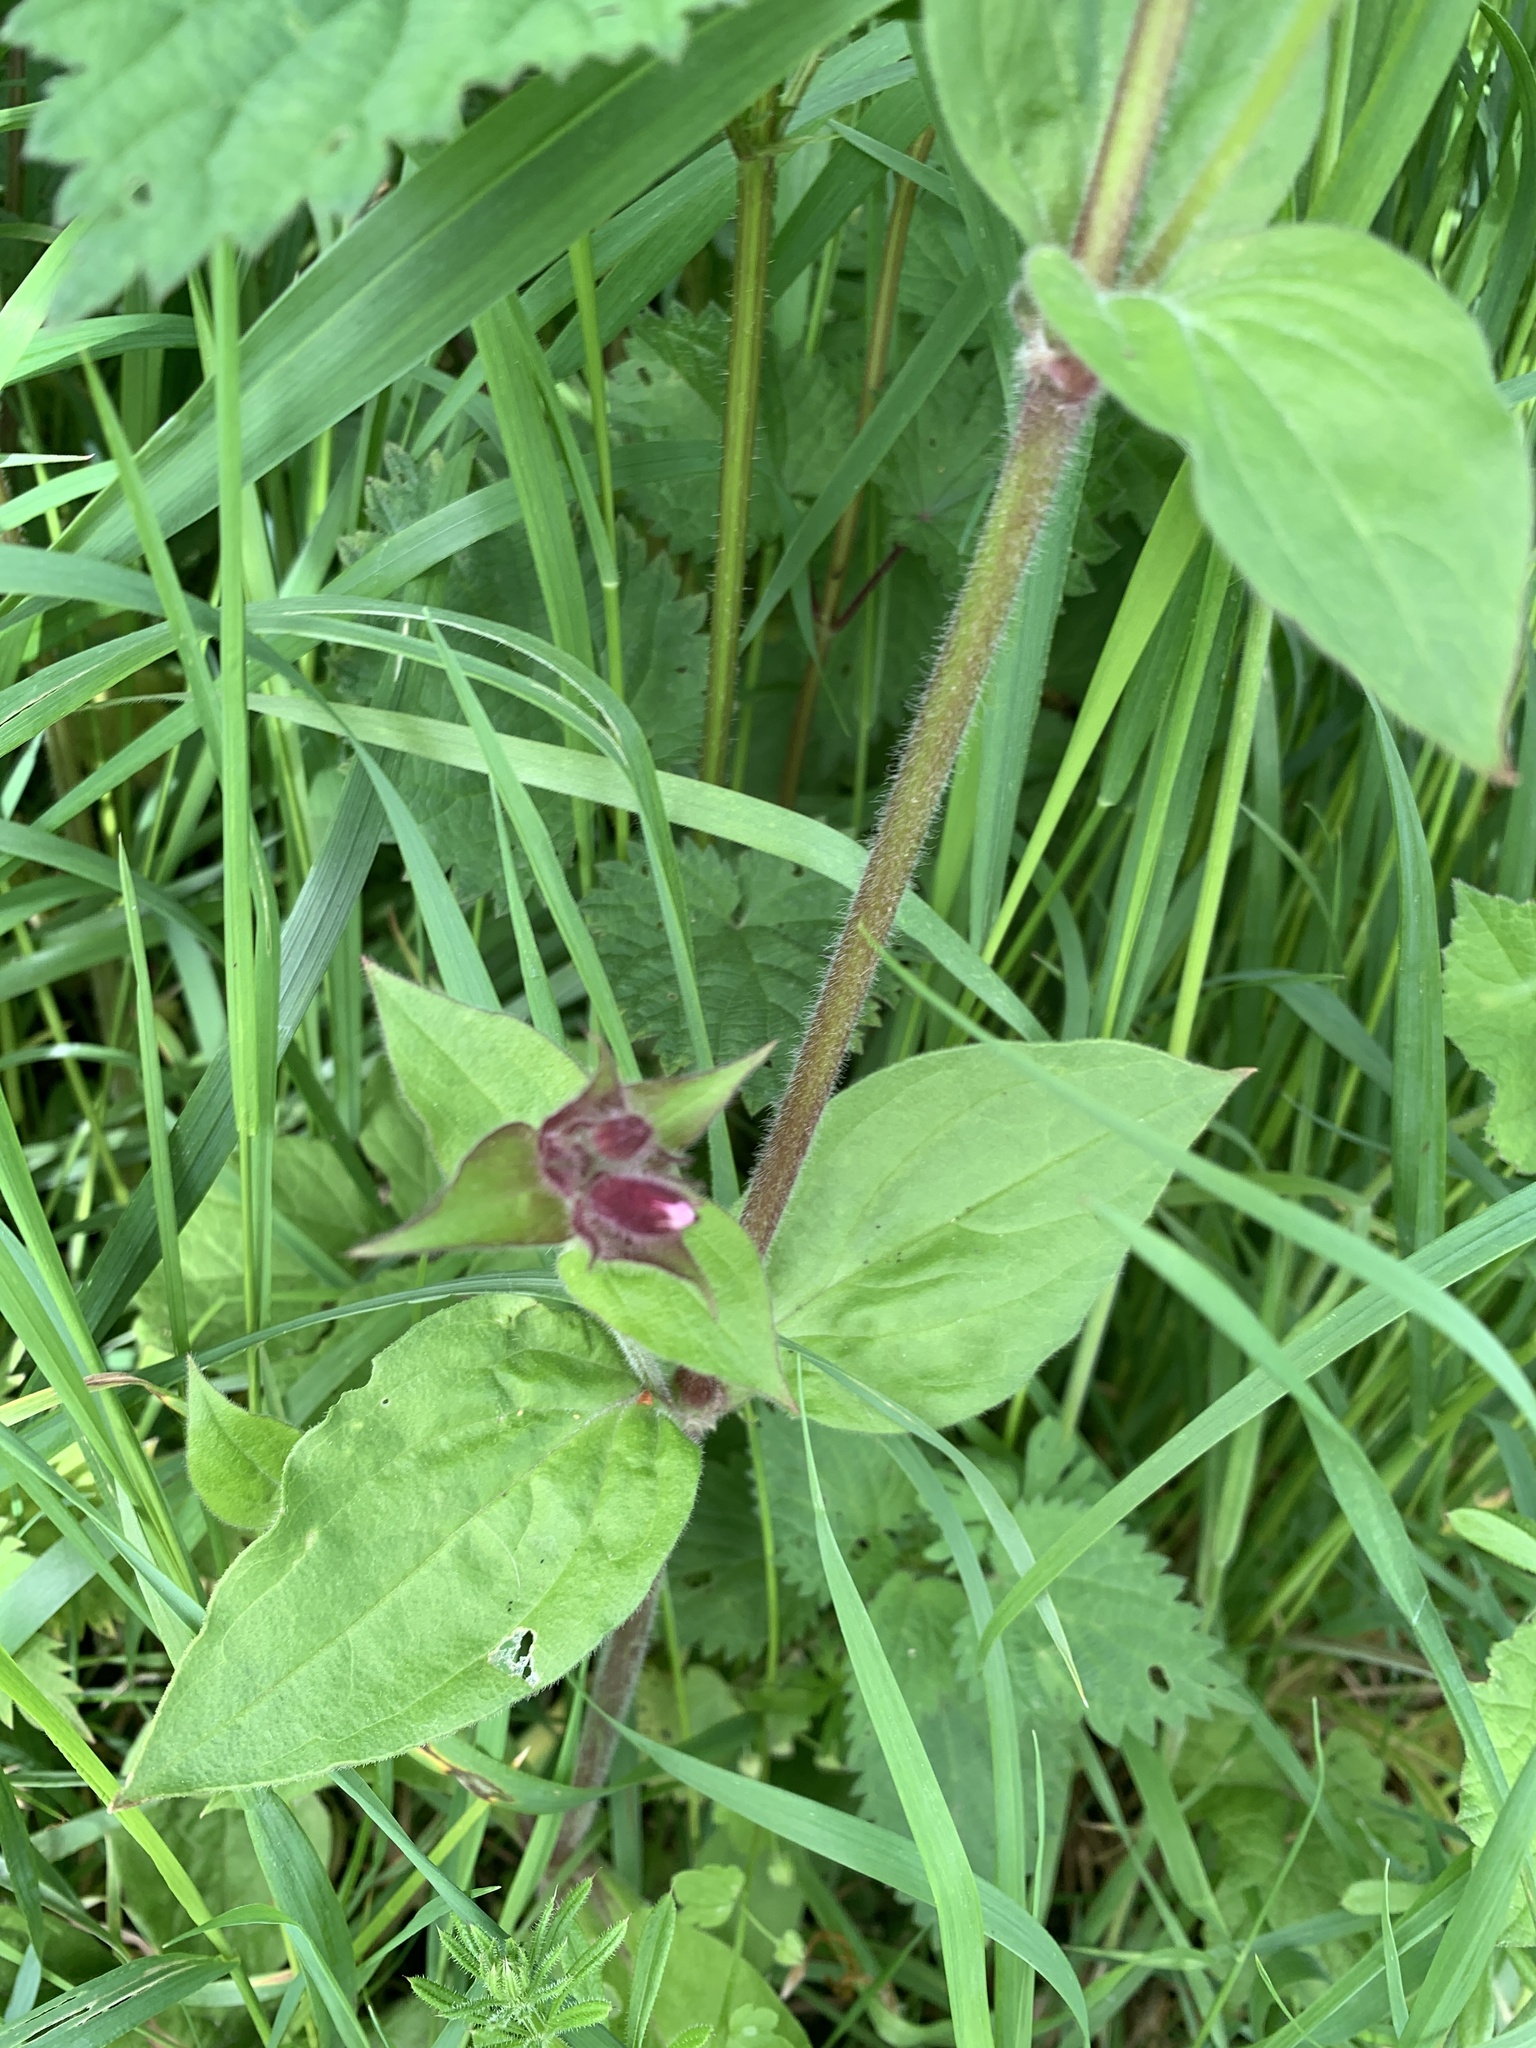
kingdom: Plantae
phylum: Tracheophyta
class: Magnoliopsida
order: Caryophyllales
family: Caryophyllaceae
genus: Silene
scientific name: Silene dioica
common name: Red campion
